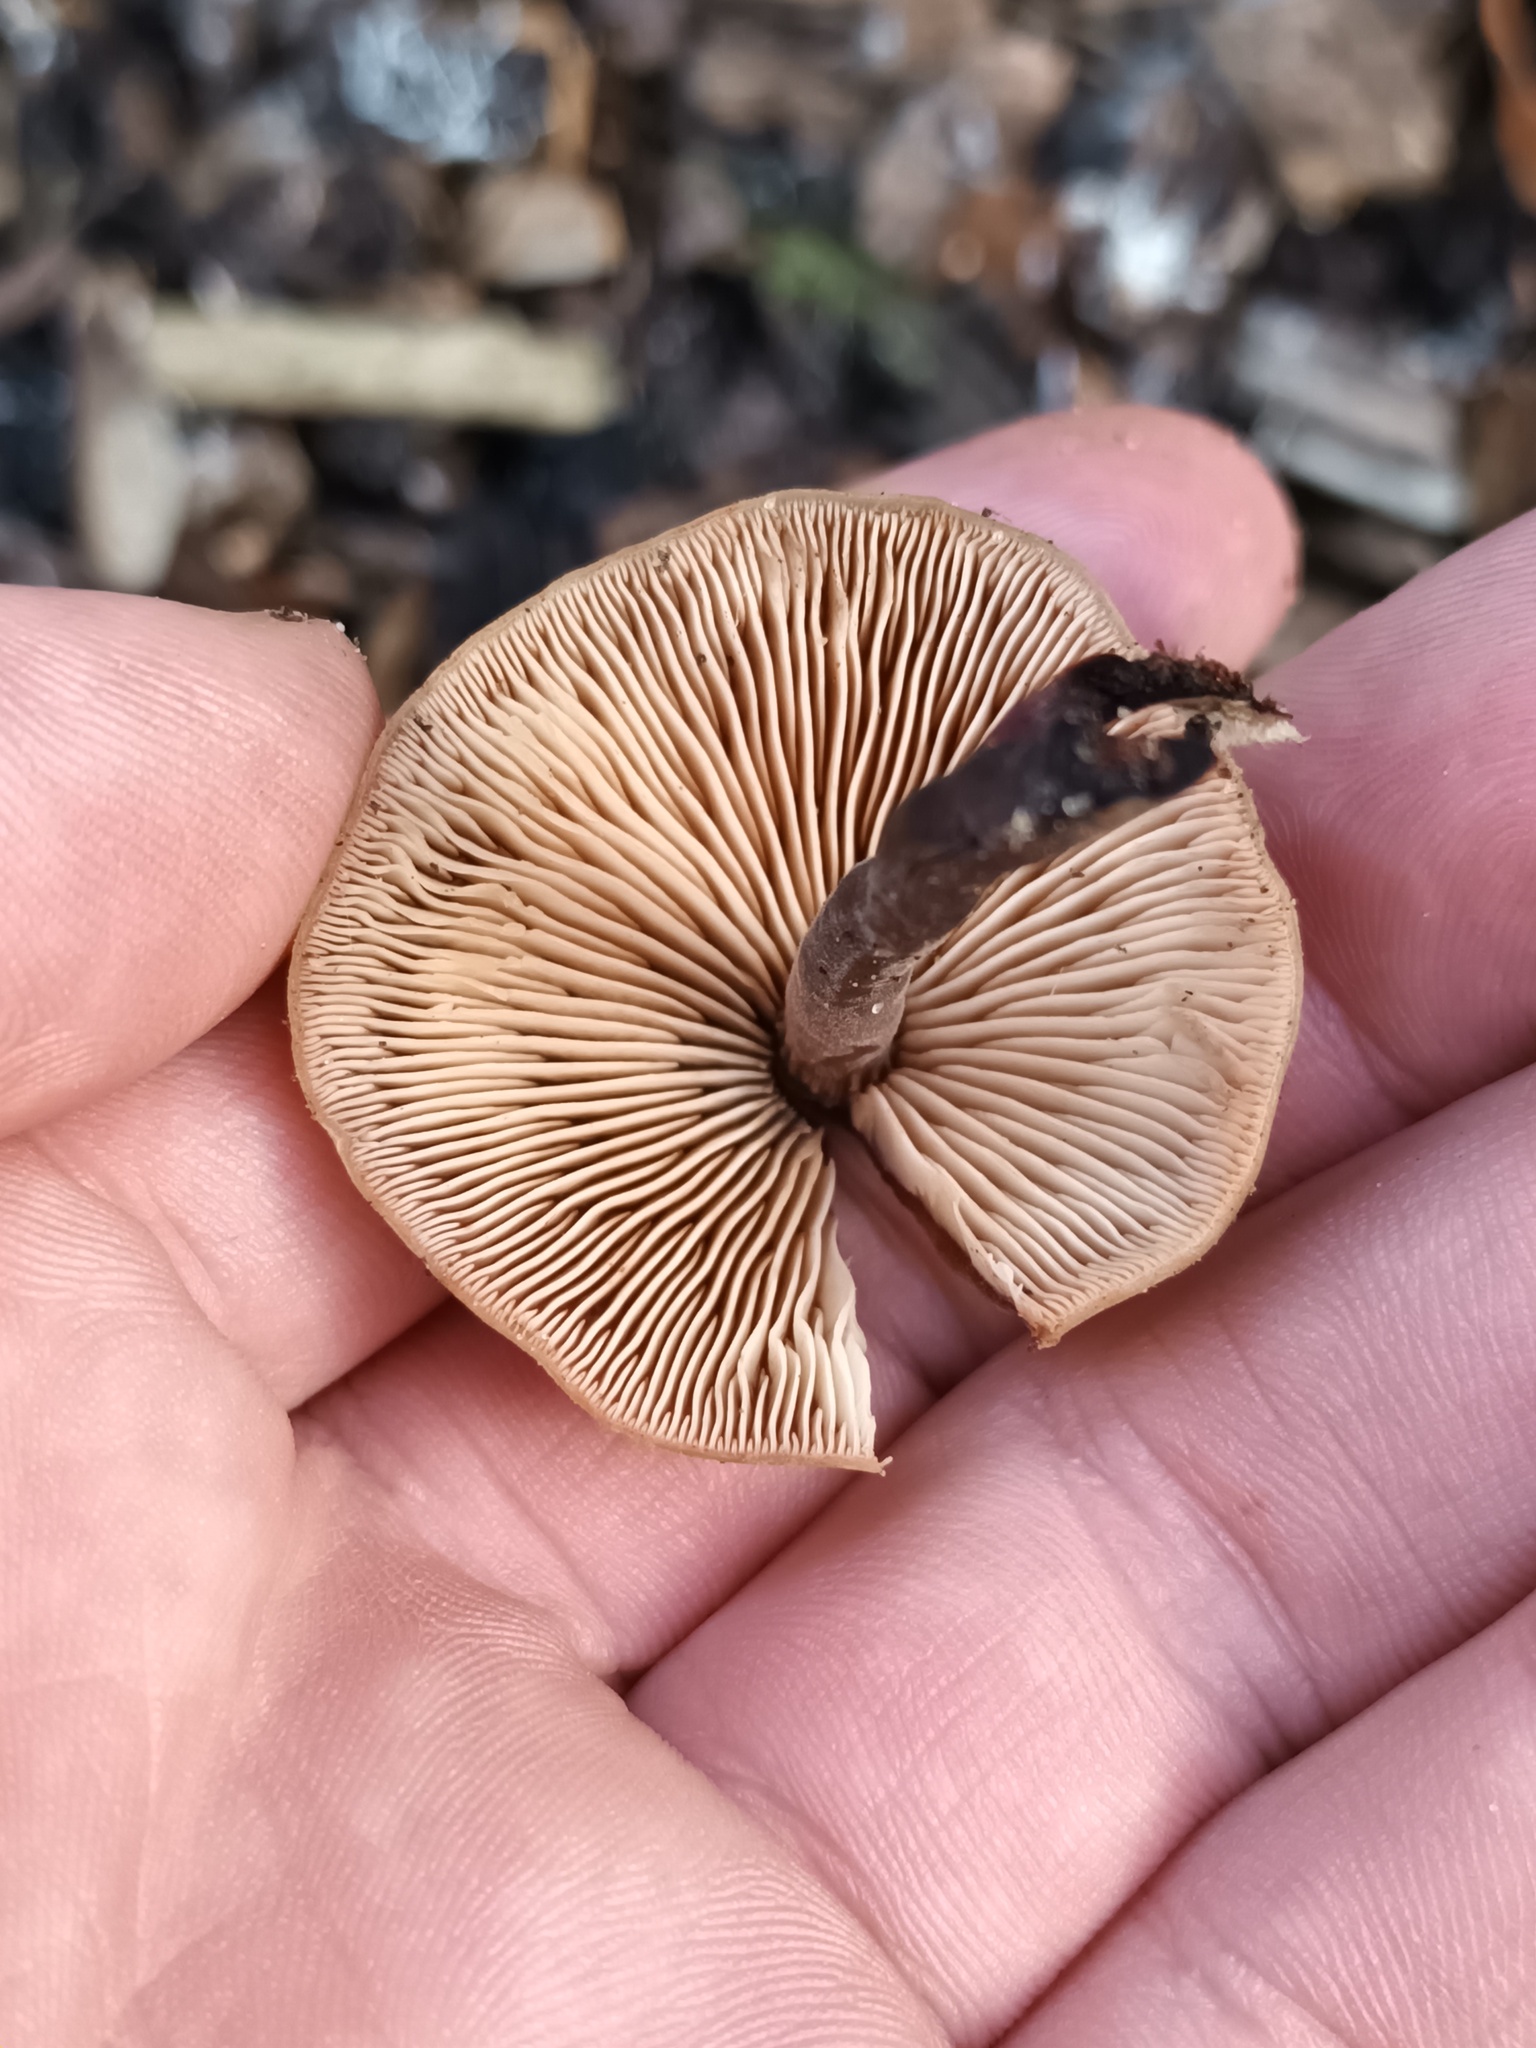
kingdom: Fungi
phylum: Basidiomycota
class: Agaricomycetes
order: Agaricales
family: Macrocystidiaceae
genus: Macrocystidia
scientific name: Macrocystidia cucumis
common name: Cucumber cap
